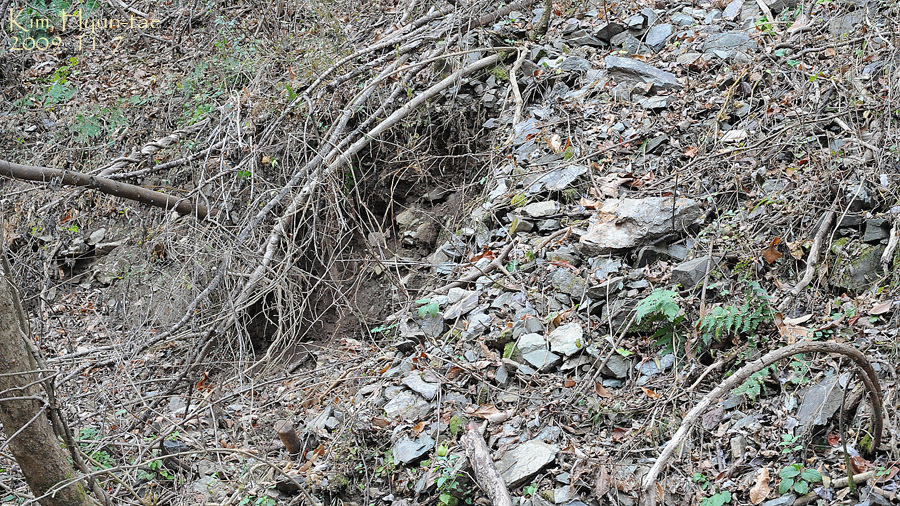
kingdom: Animalia
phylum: Chordata
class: Amphibia
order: Caudata
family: Plethodontidae
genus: Karsenia
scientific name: Karsenia koreana
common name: Korean crevice salamander
